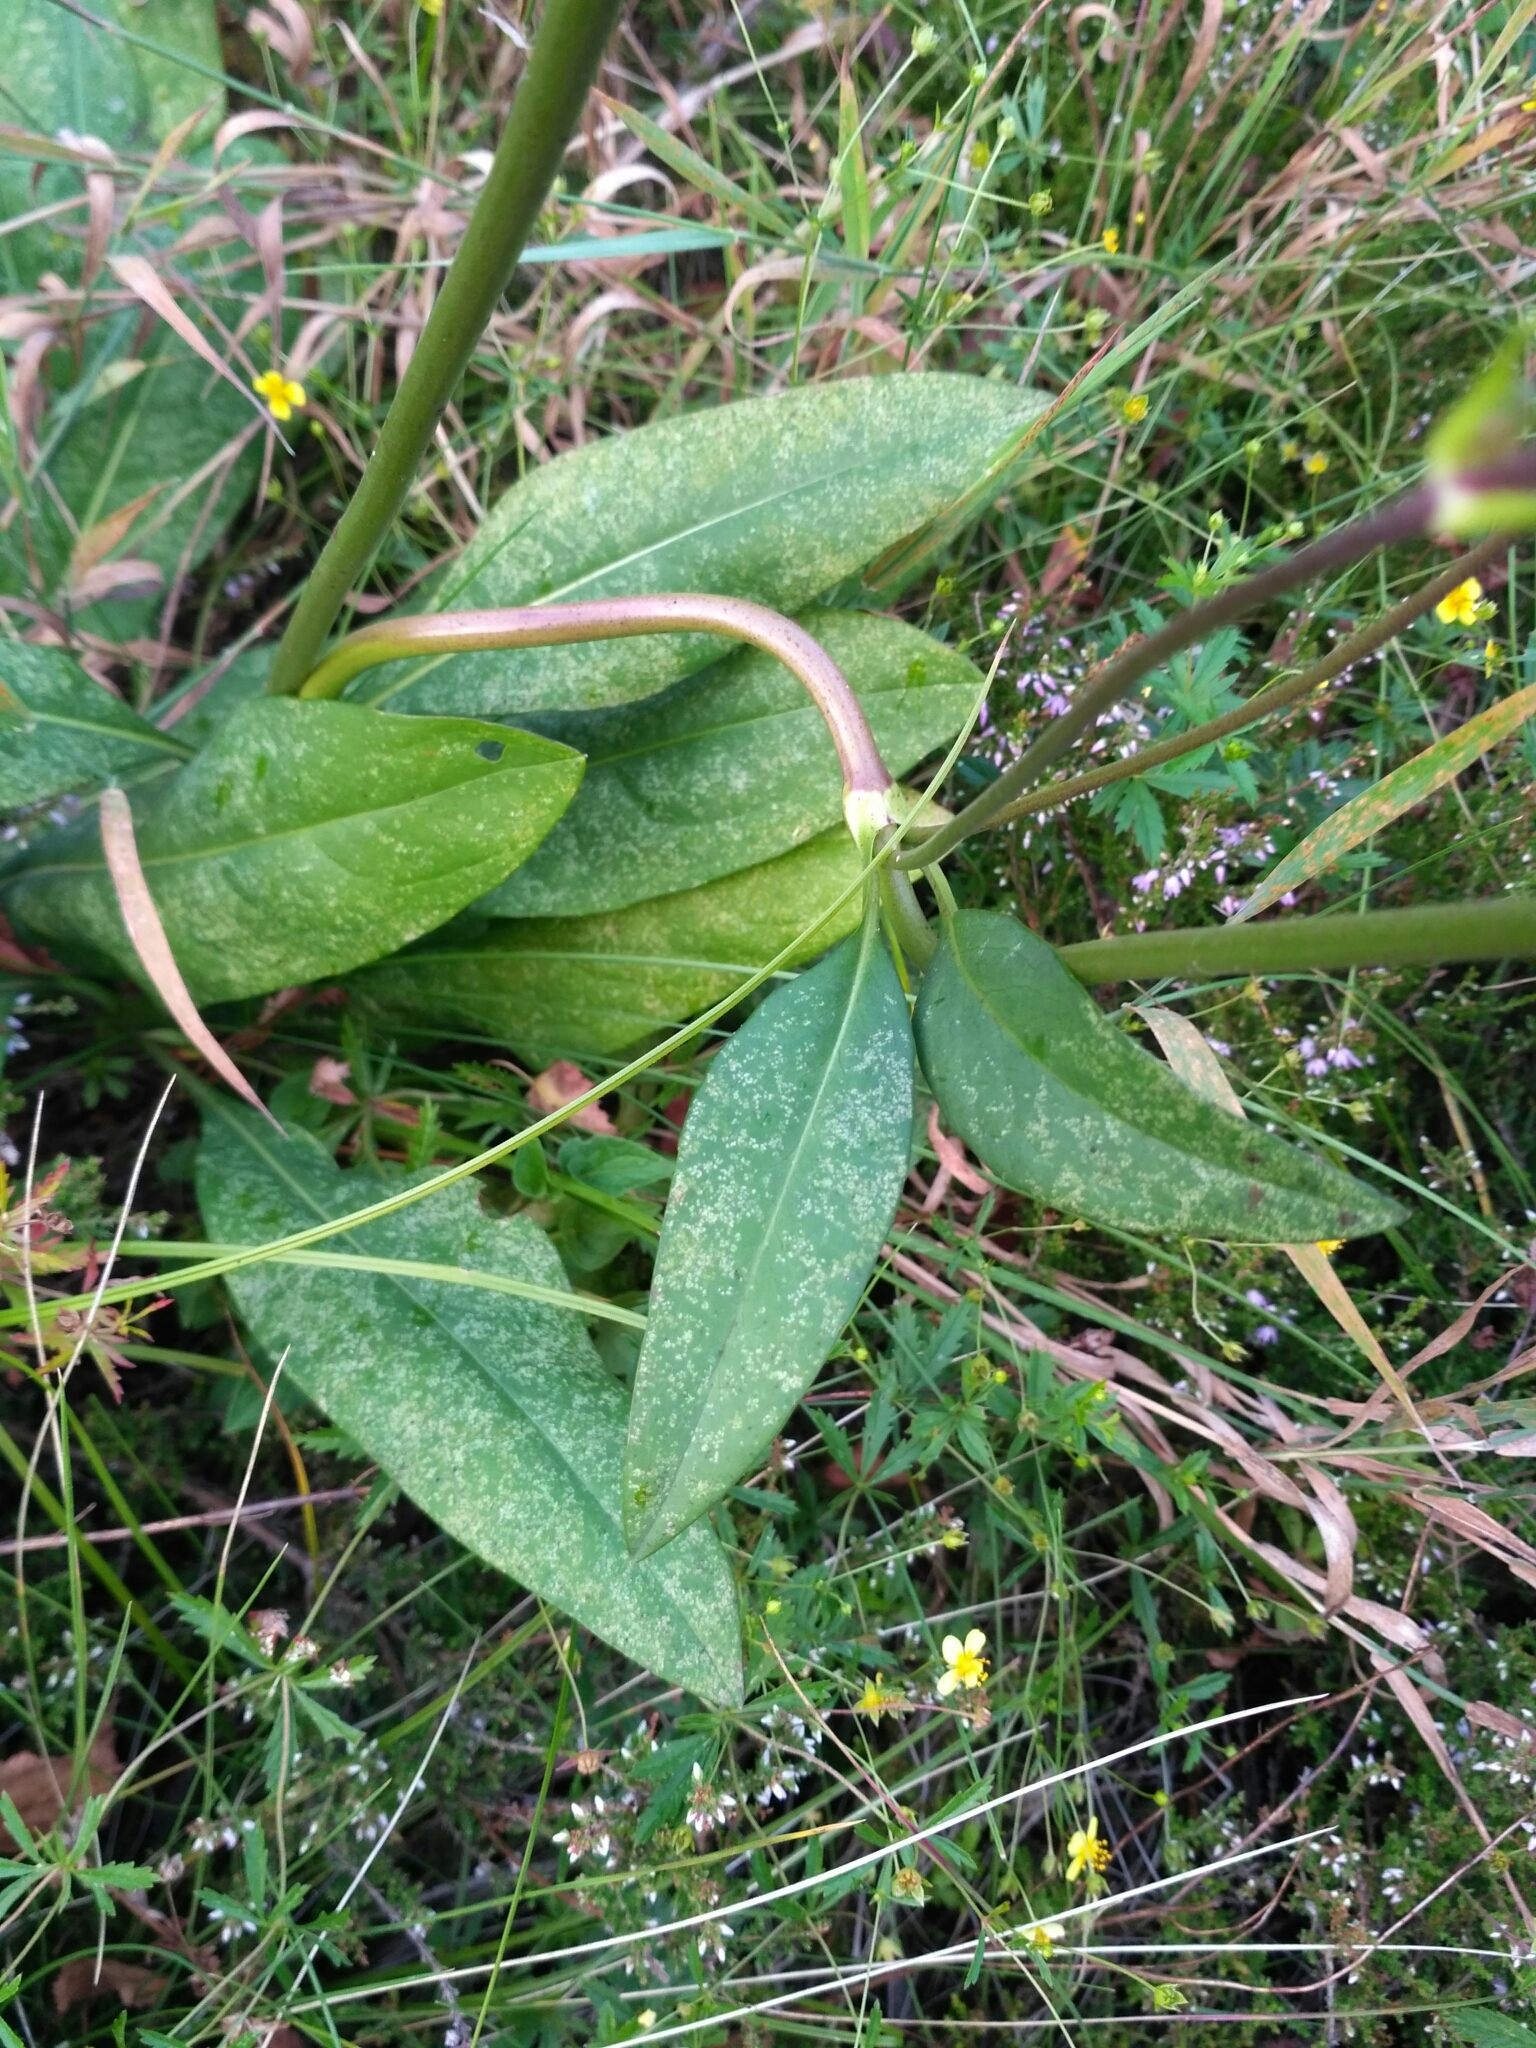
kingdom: Plantae
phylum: Tracheophyta
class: Magnoliopsida
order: Dipsacales
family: Caprifoliaceae
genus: Succisa
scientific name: Succisa pratensis
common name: Devil's-bit
